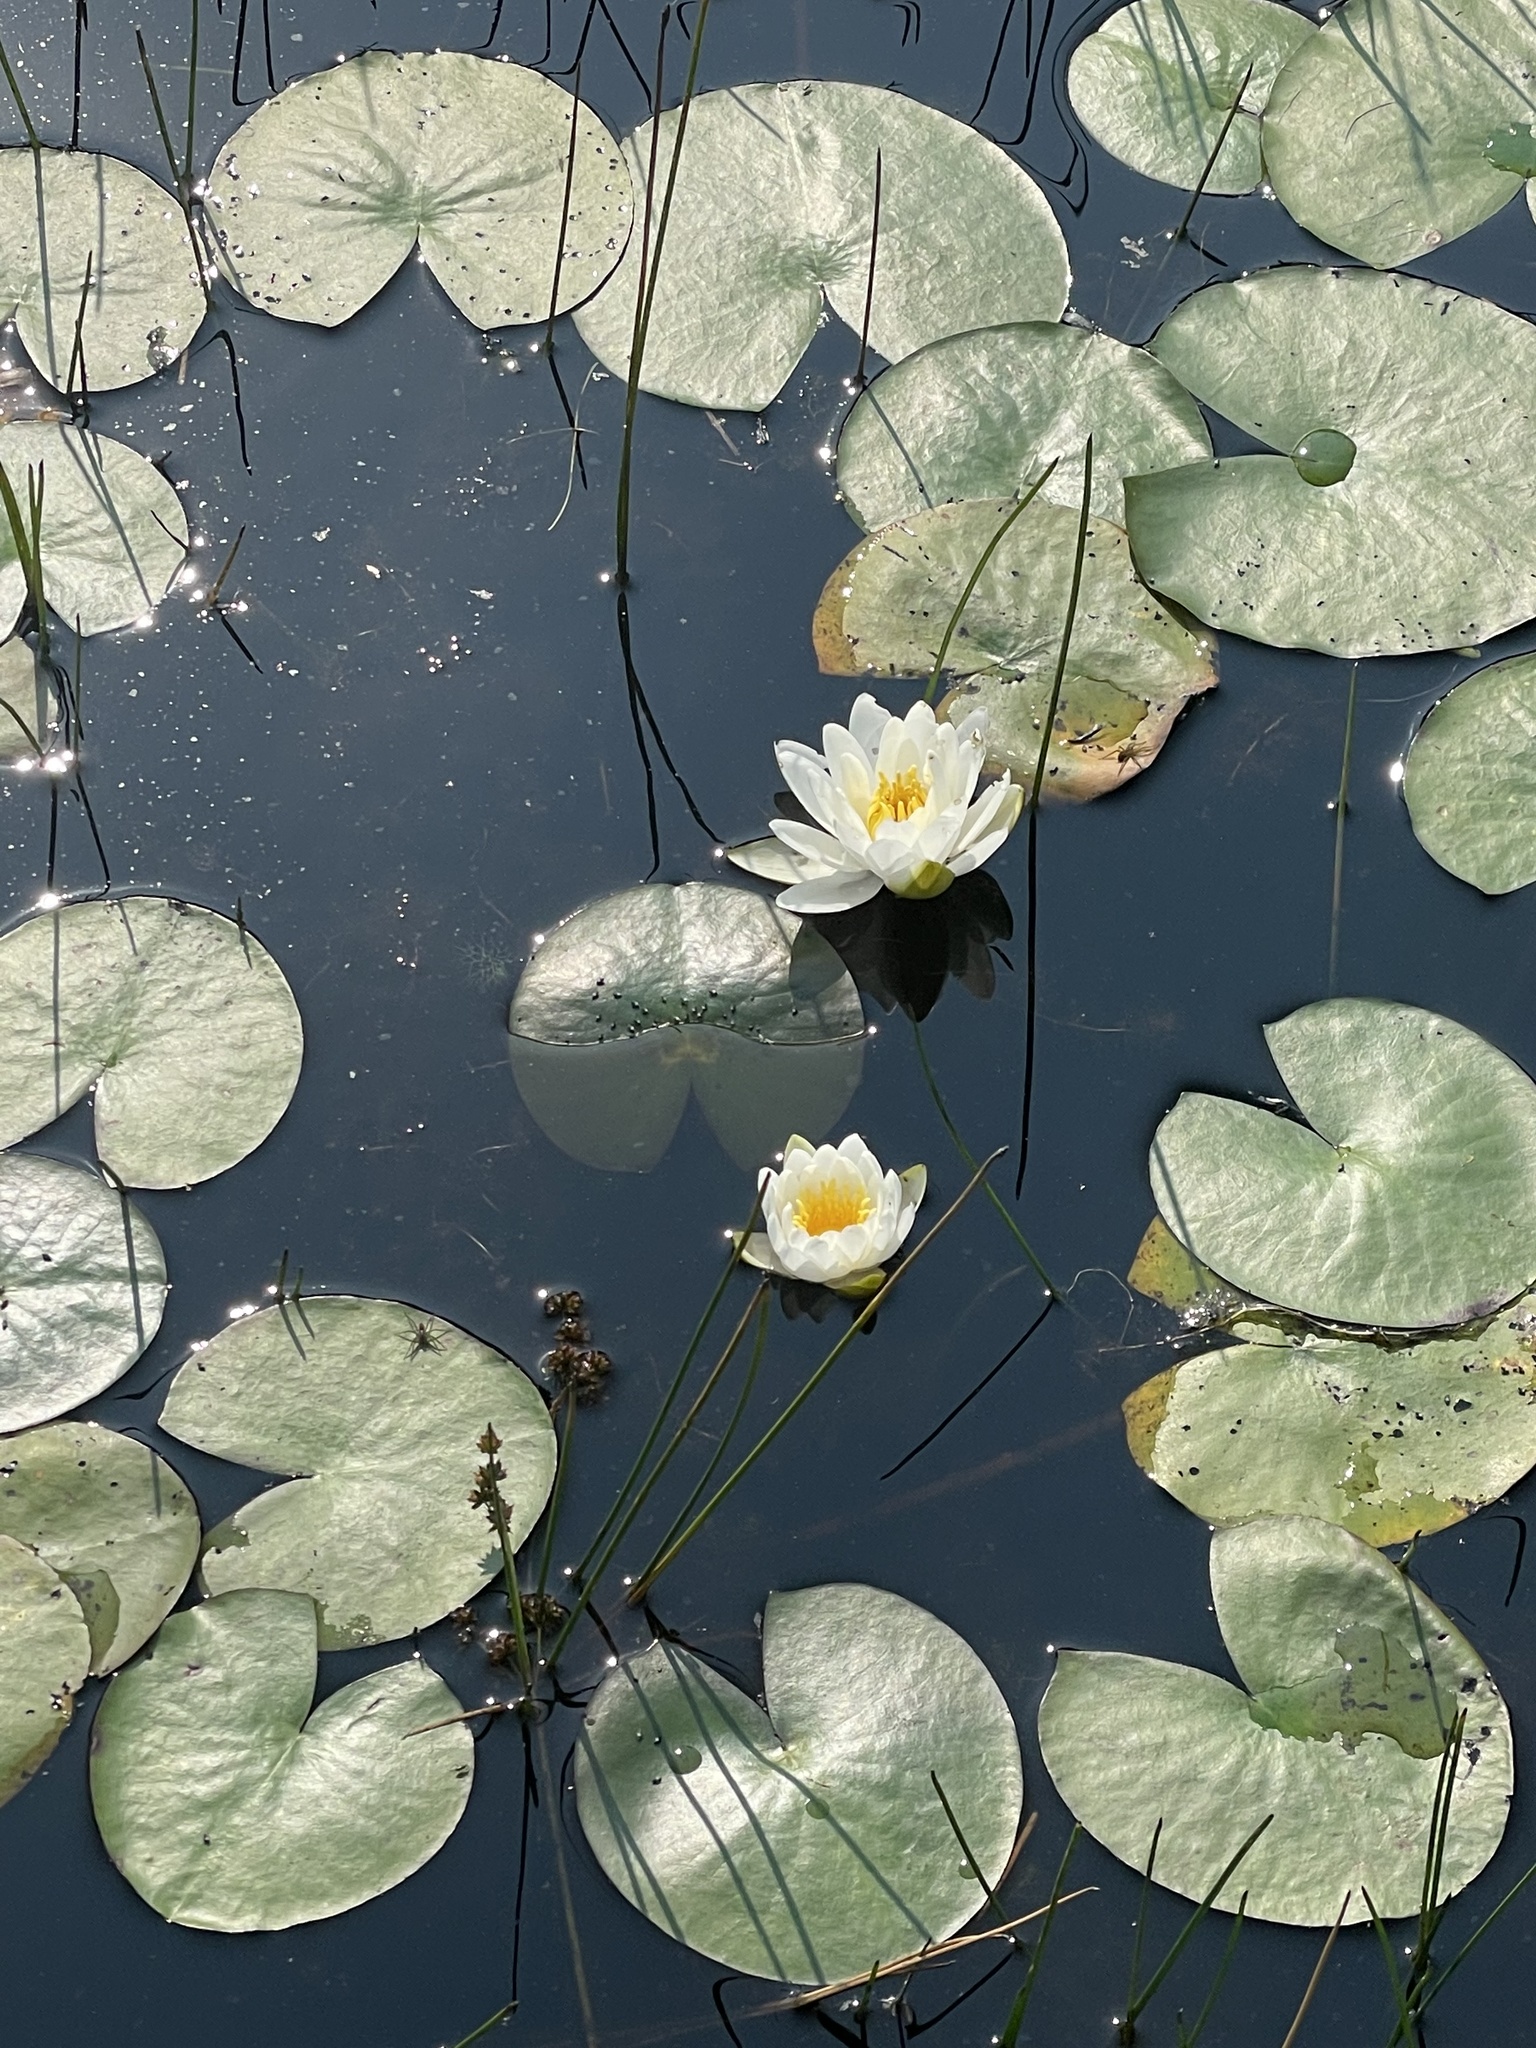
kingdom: Plantae
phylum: Tracheophyta
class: Magnoliopsida
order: Nymphaeales
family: Nymphaeaceae
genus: Nymphaea
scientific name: Nymphaea odorata
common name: Fragrant water-lily
